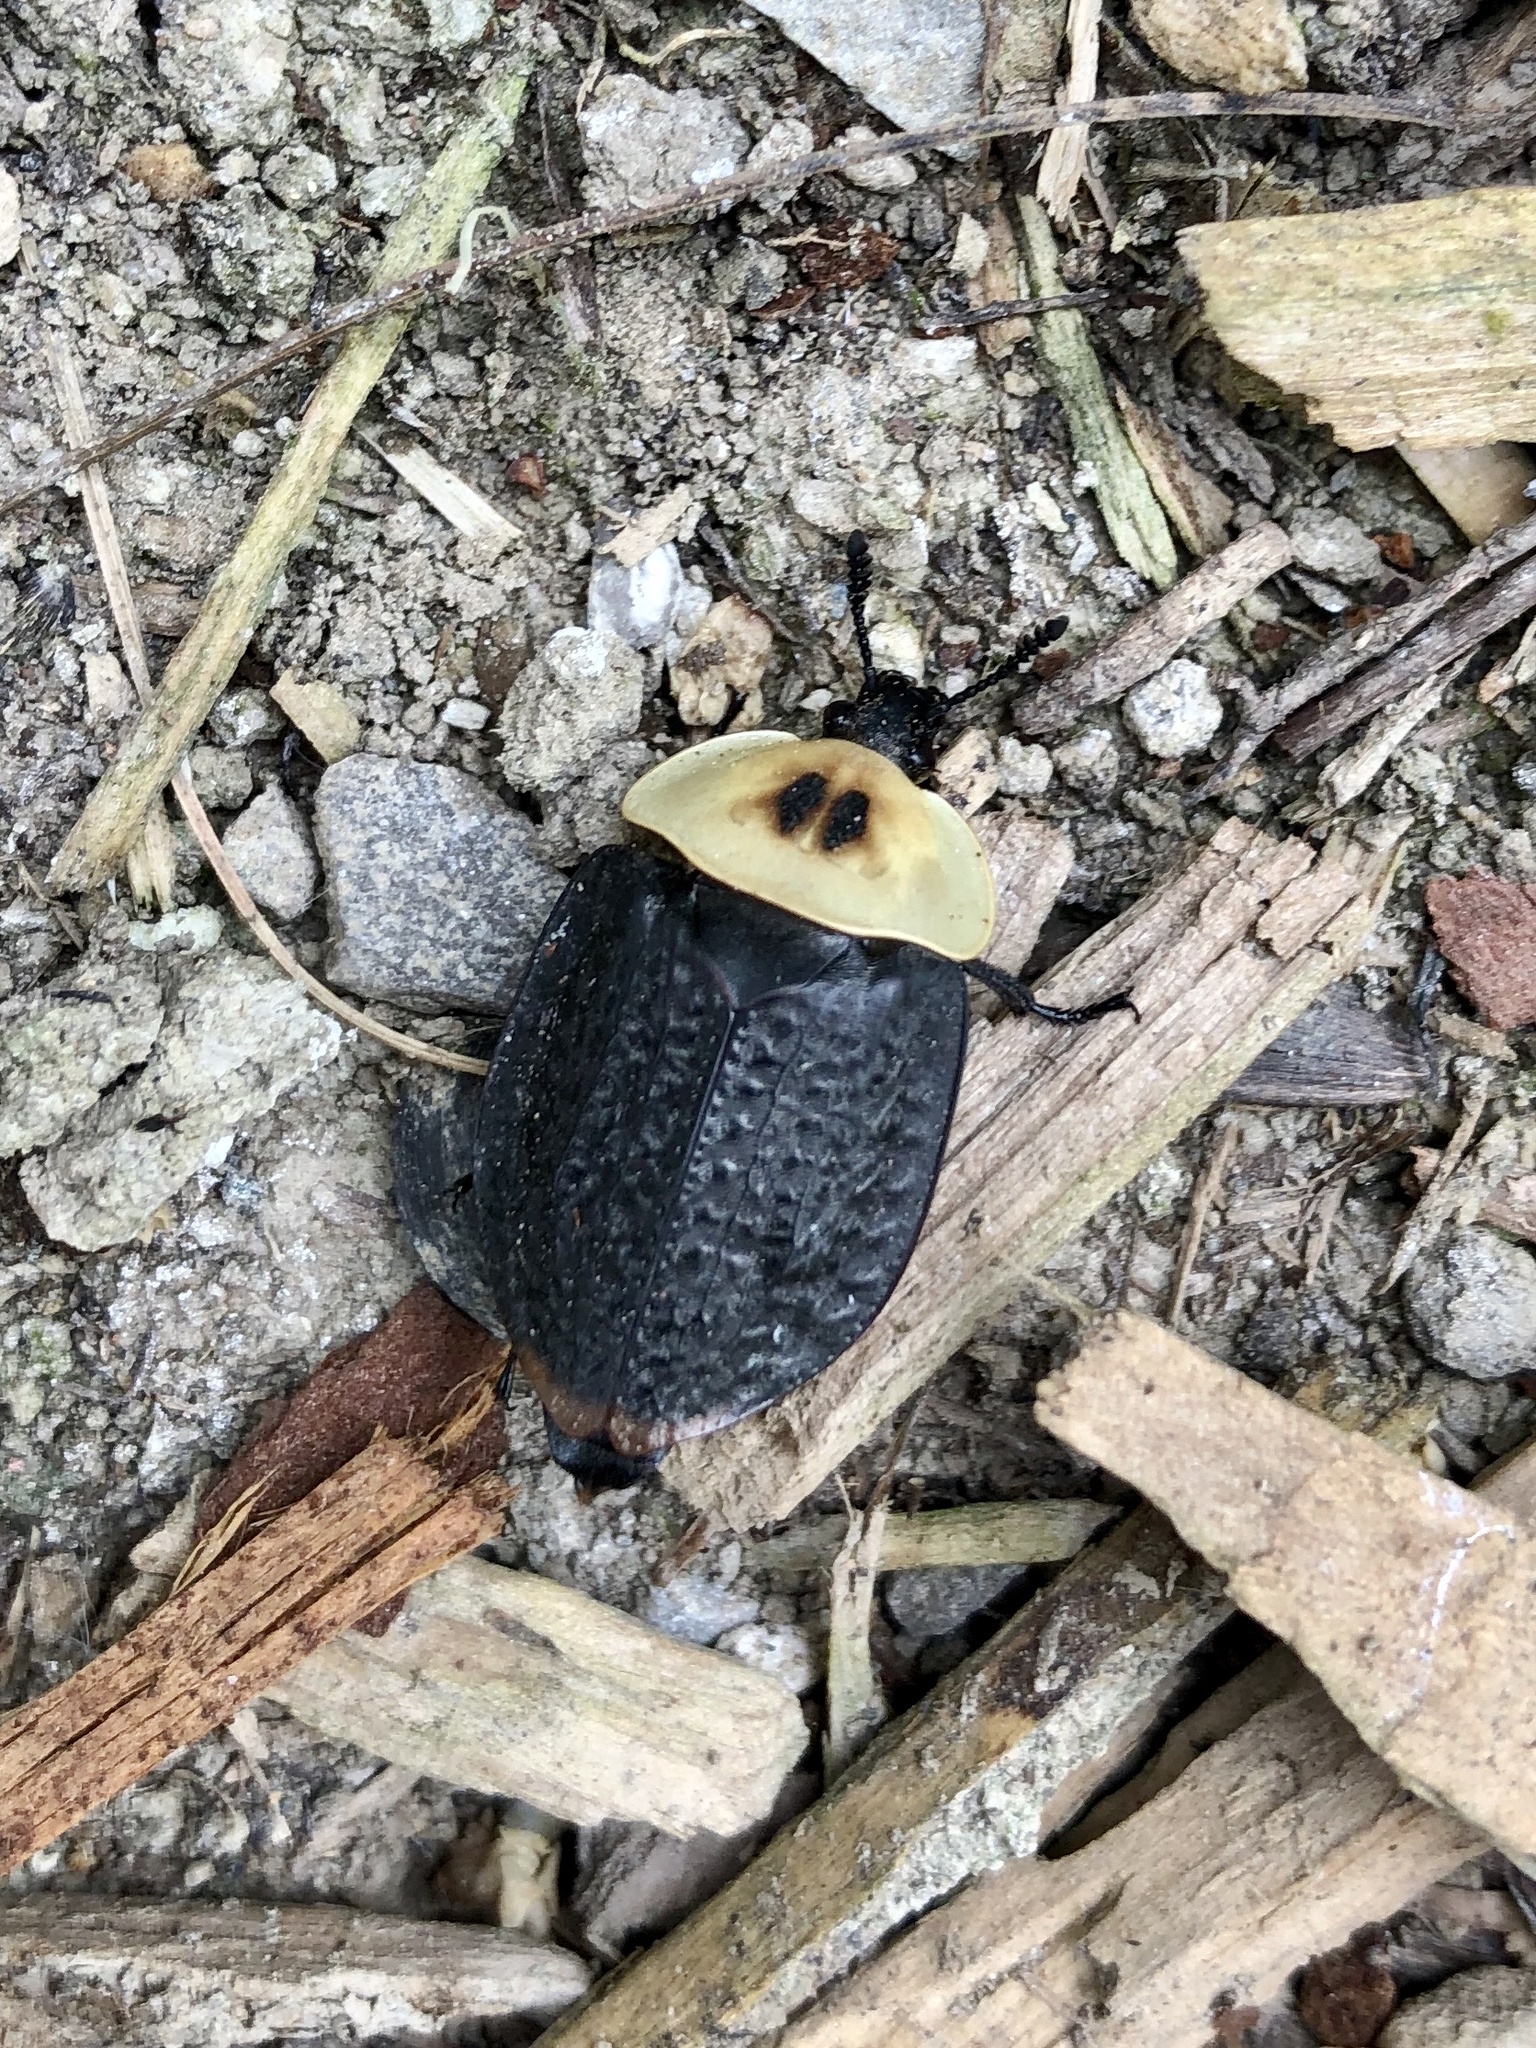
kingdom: Animalia
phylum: Arthropoda
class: Insecta
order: Coleoptera
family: Staphylinidae
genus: Necrophila
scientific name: Necrophila americana
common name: American carrion beetle
